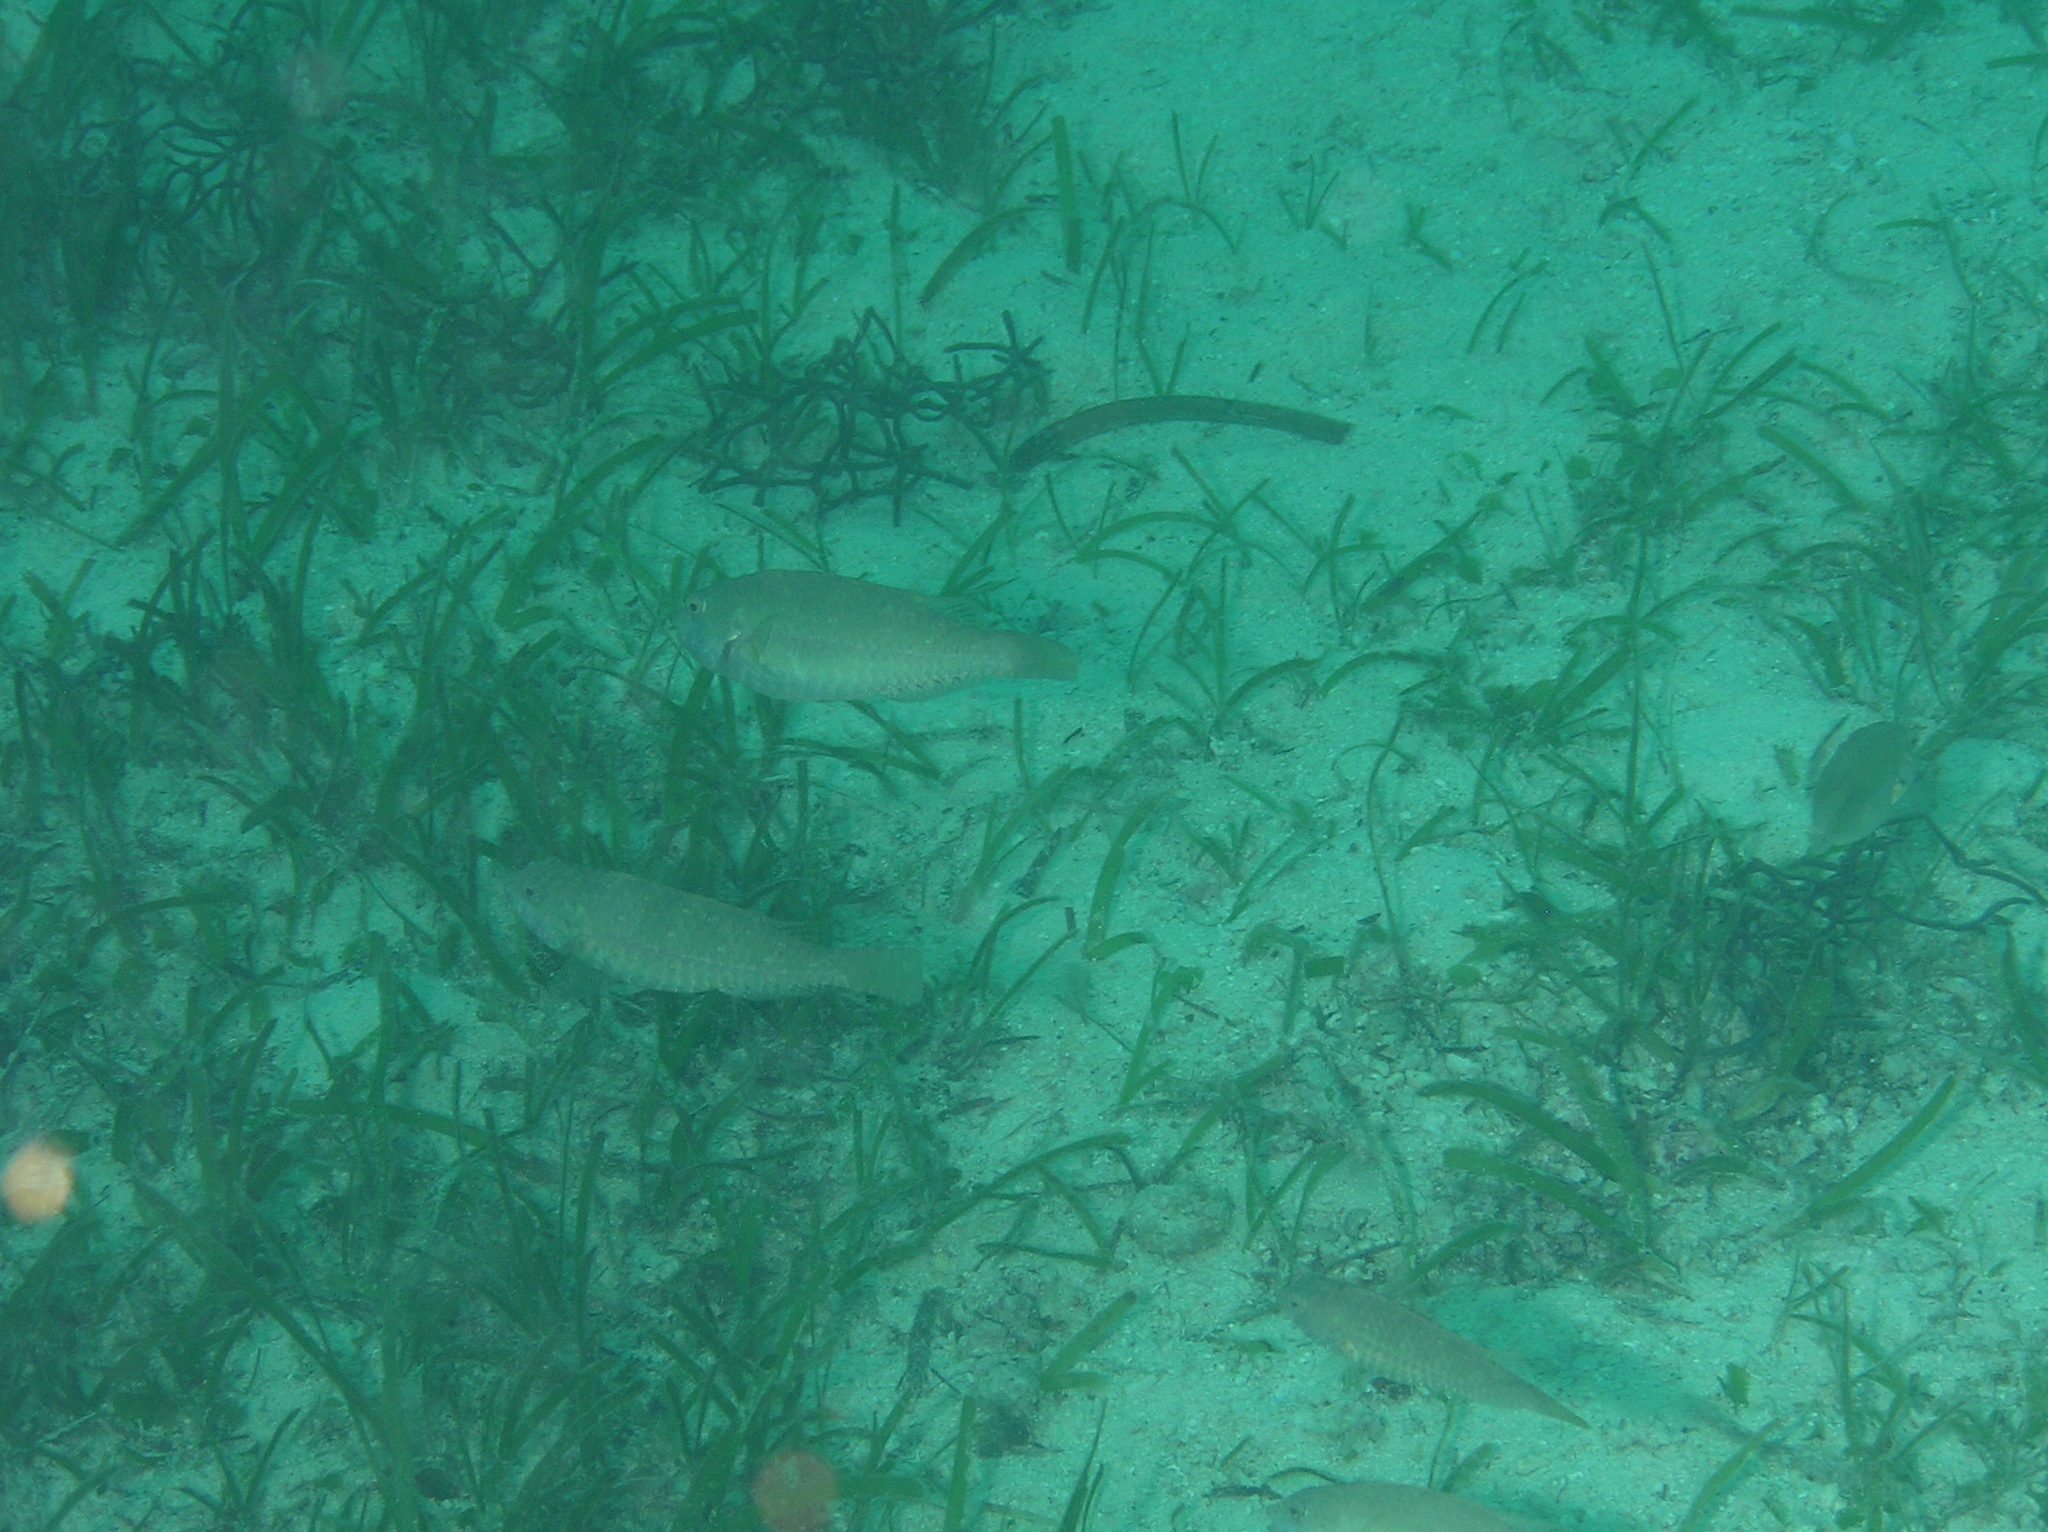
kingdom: Animalia
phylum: Chordata
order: Perciformes
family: Scaridae
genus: Leptoscarus
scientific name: Leptoscarus vaigiensis
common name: Marbled parrotfish
